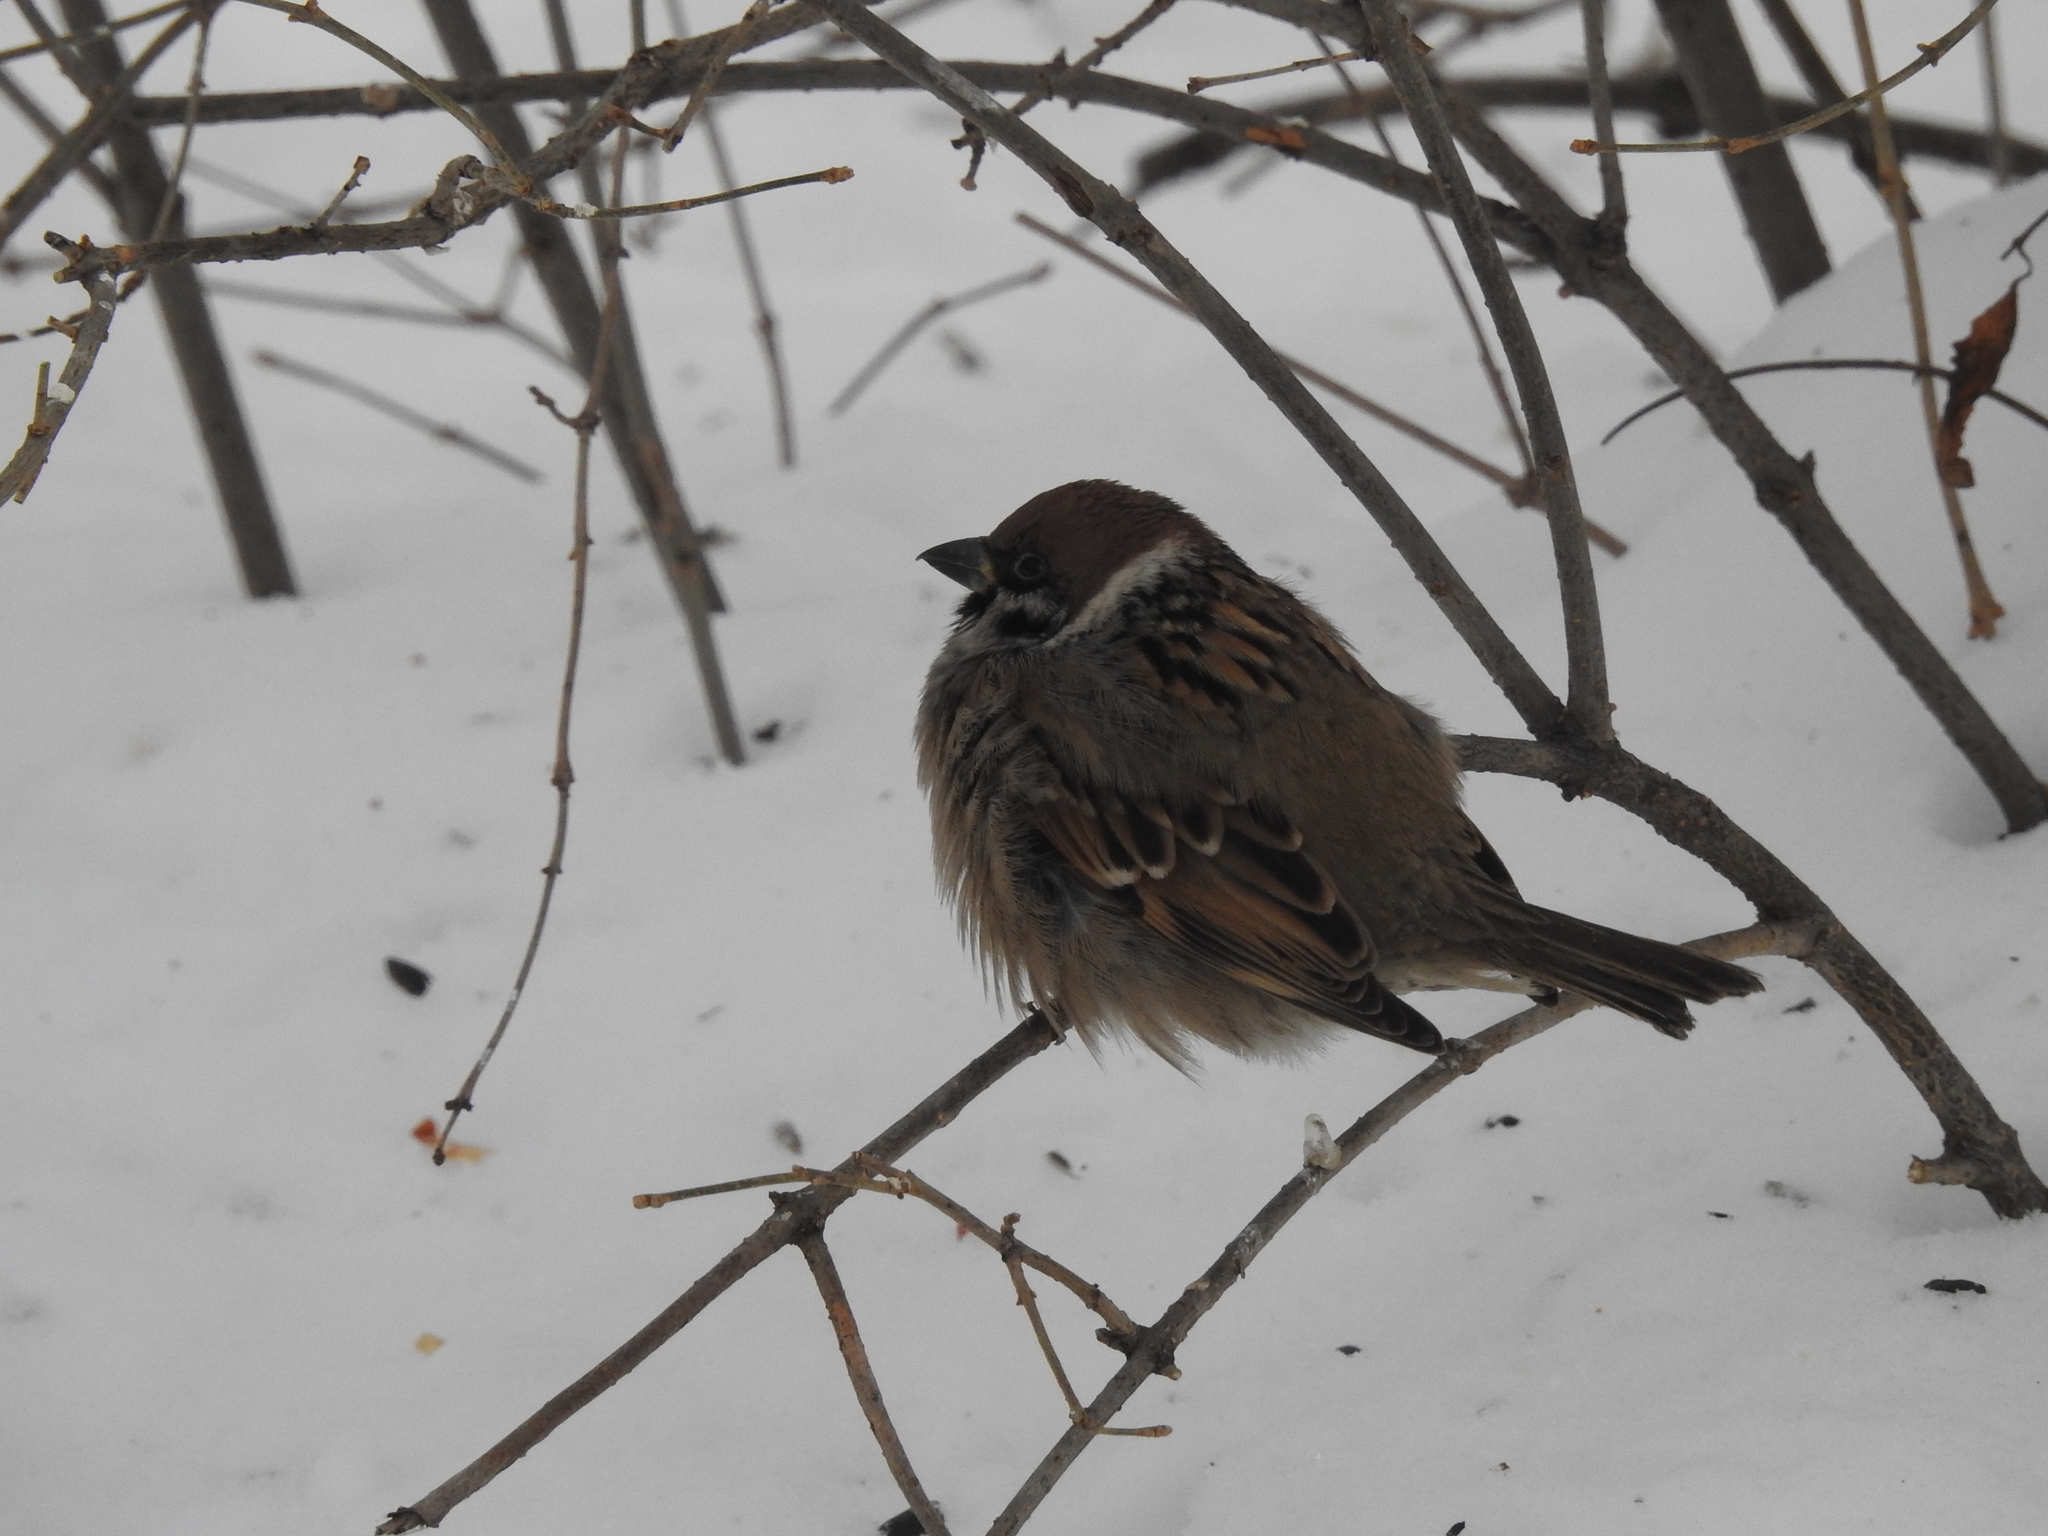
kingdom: Animalia
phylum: Chordata
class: Aves
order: Passeriformes
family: Passeridae
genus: Passer
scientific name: Passer montanus
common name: Eurasian tree sparrow
